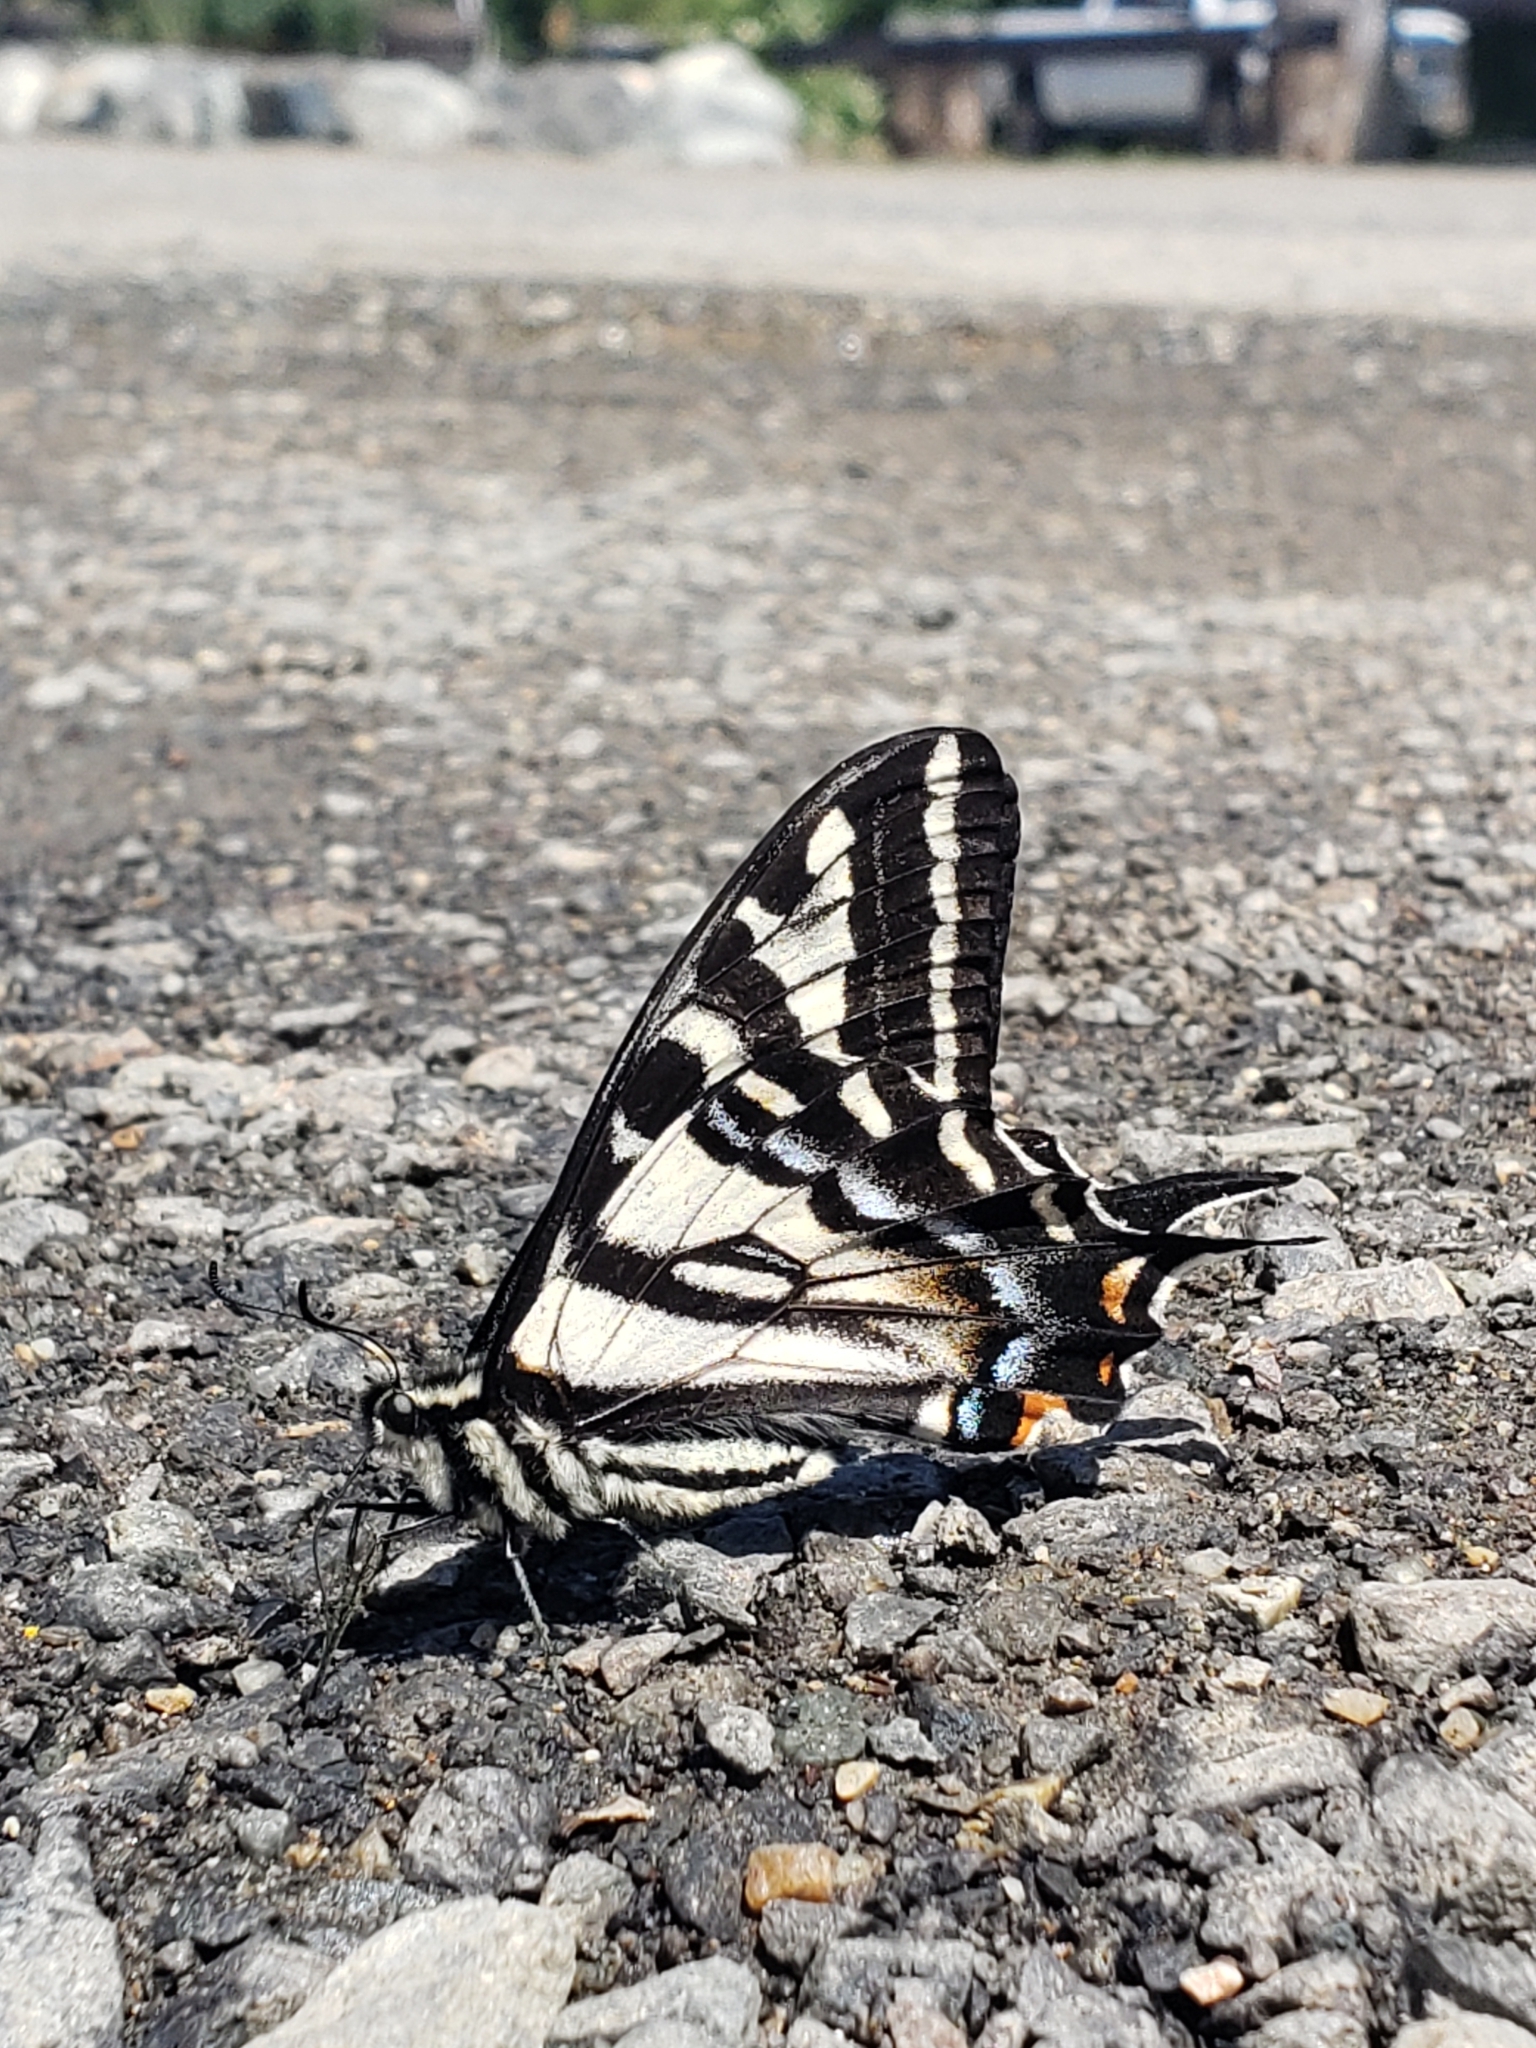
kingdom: Animalia
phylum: Arthropoda
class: Insecta
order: Lepidoptera
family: Papilionidae
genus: Papilio
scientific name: Papilio eurymedon
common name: Pale tiger swallowtail
